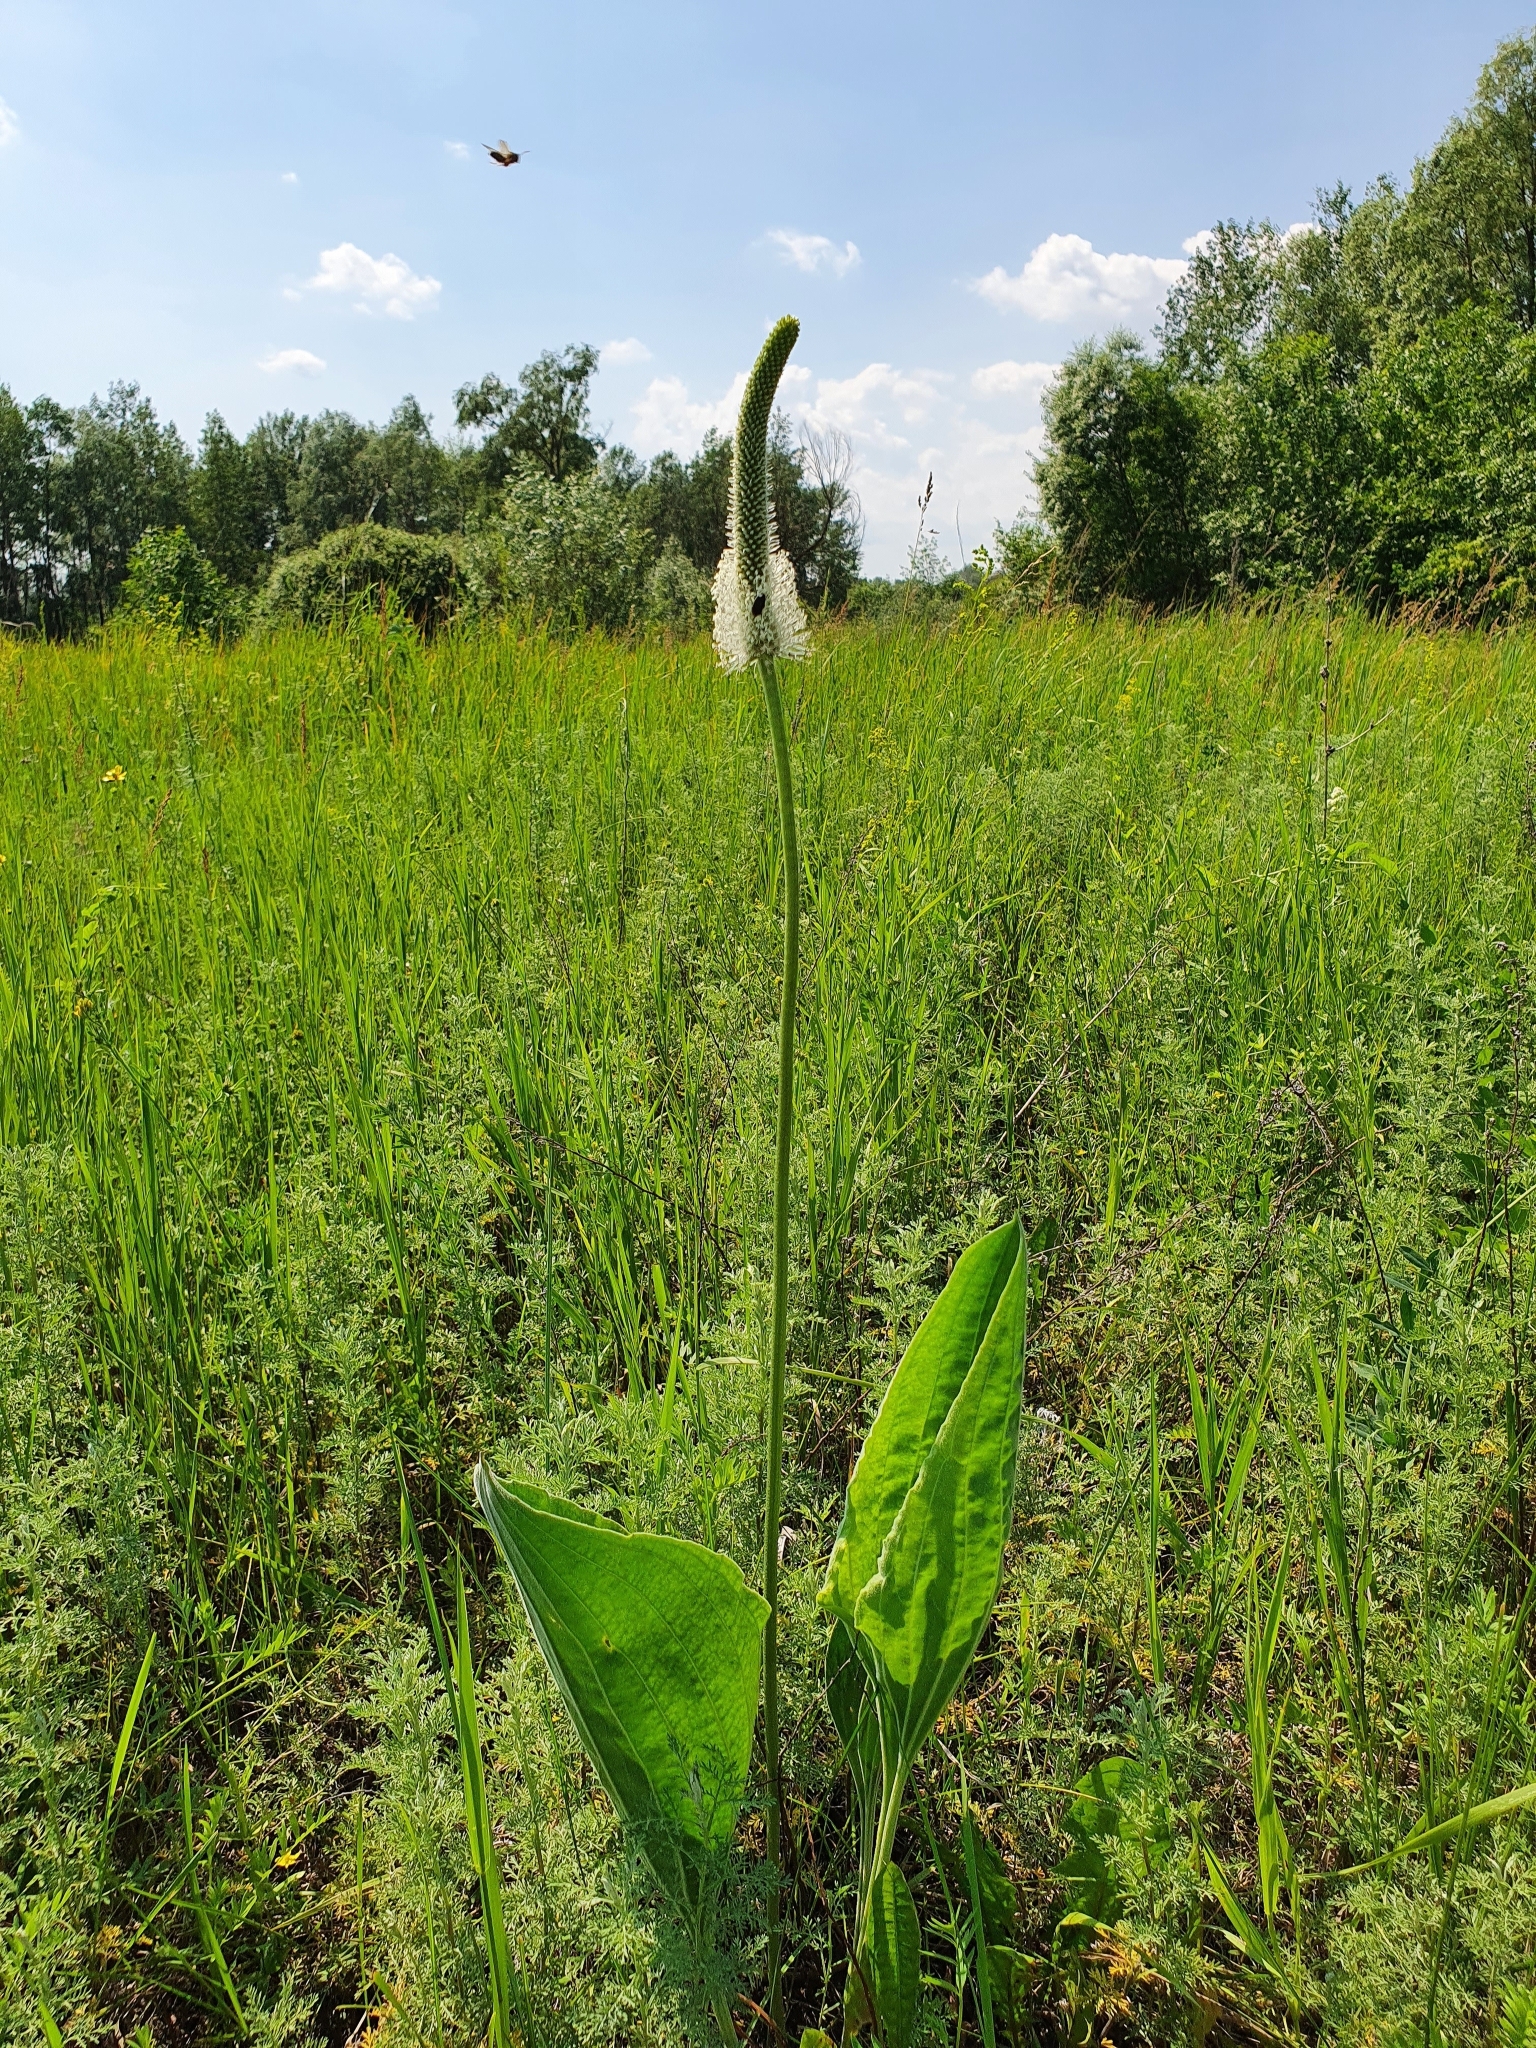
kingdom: Plantae
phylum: Tracheophyta
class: Magnoliopsida
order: Lamiales
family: Plantaginaceae
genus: Plantago
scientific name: Plantago maxima
